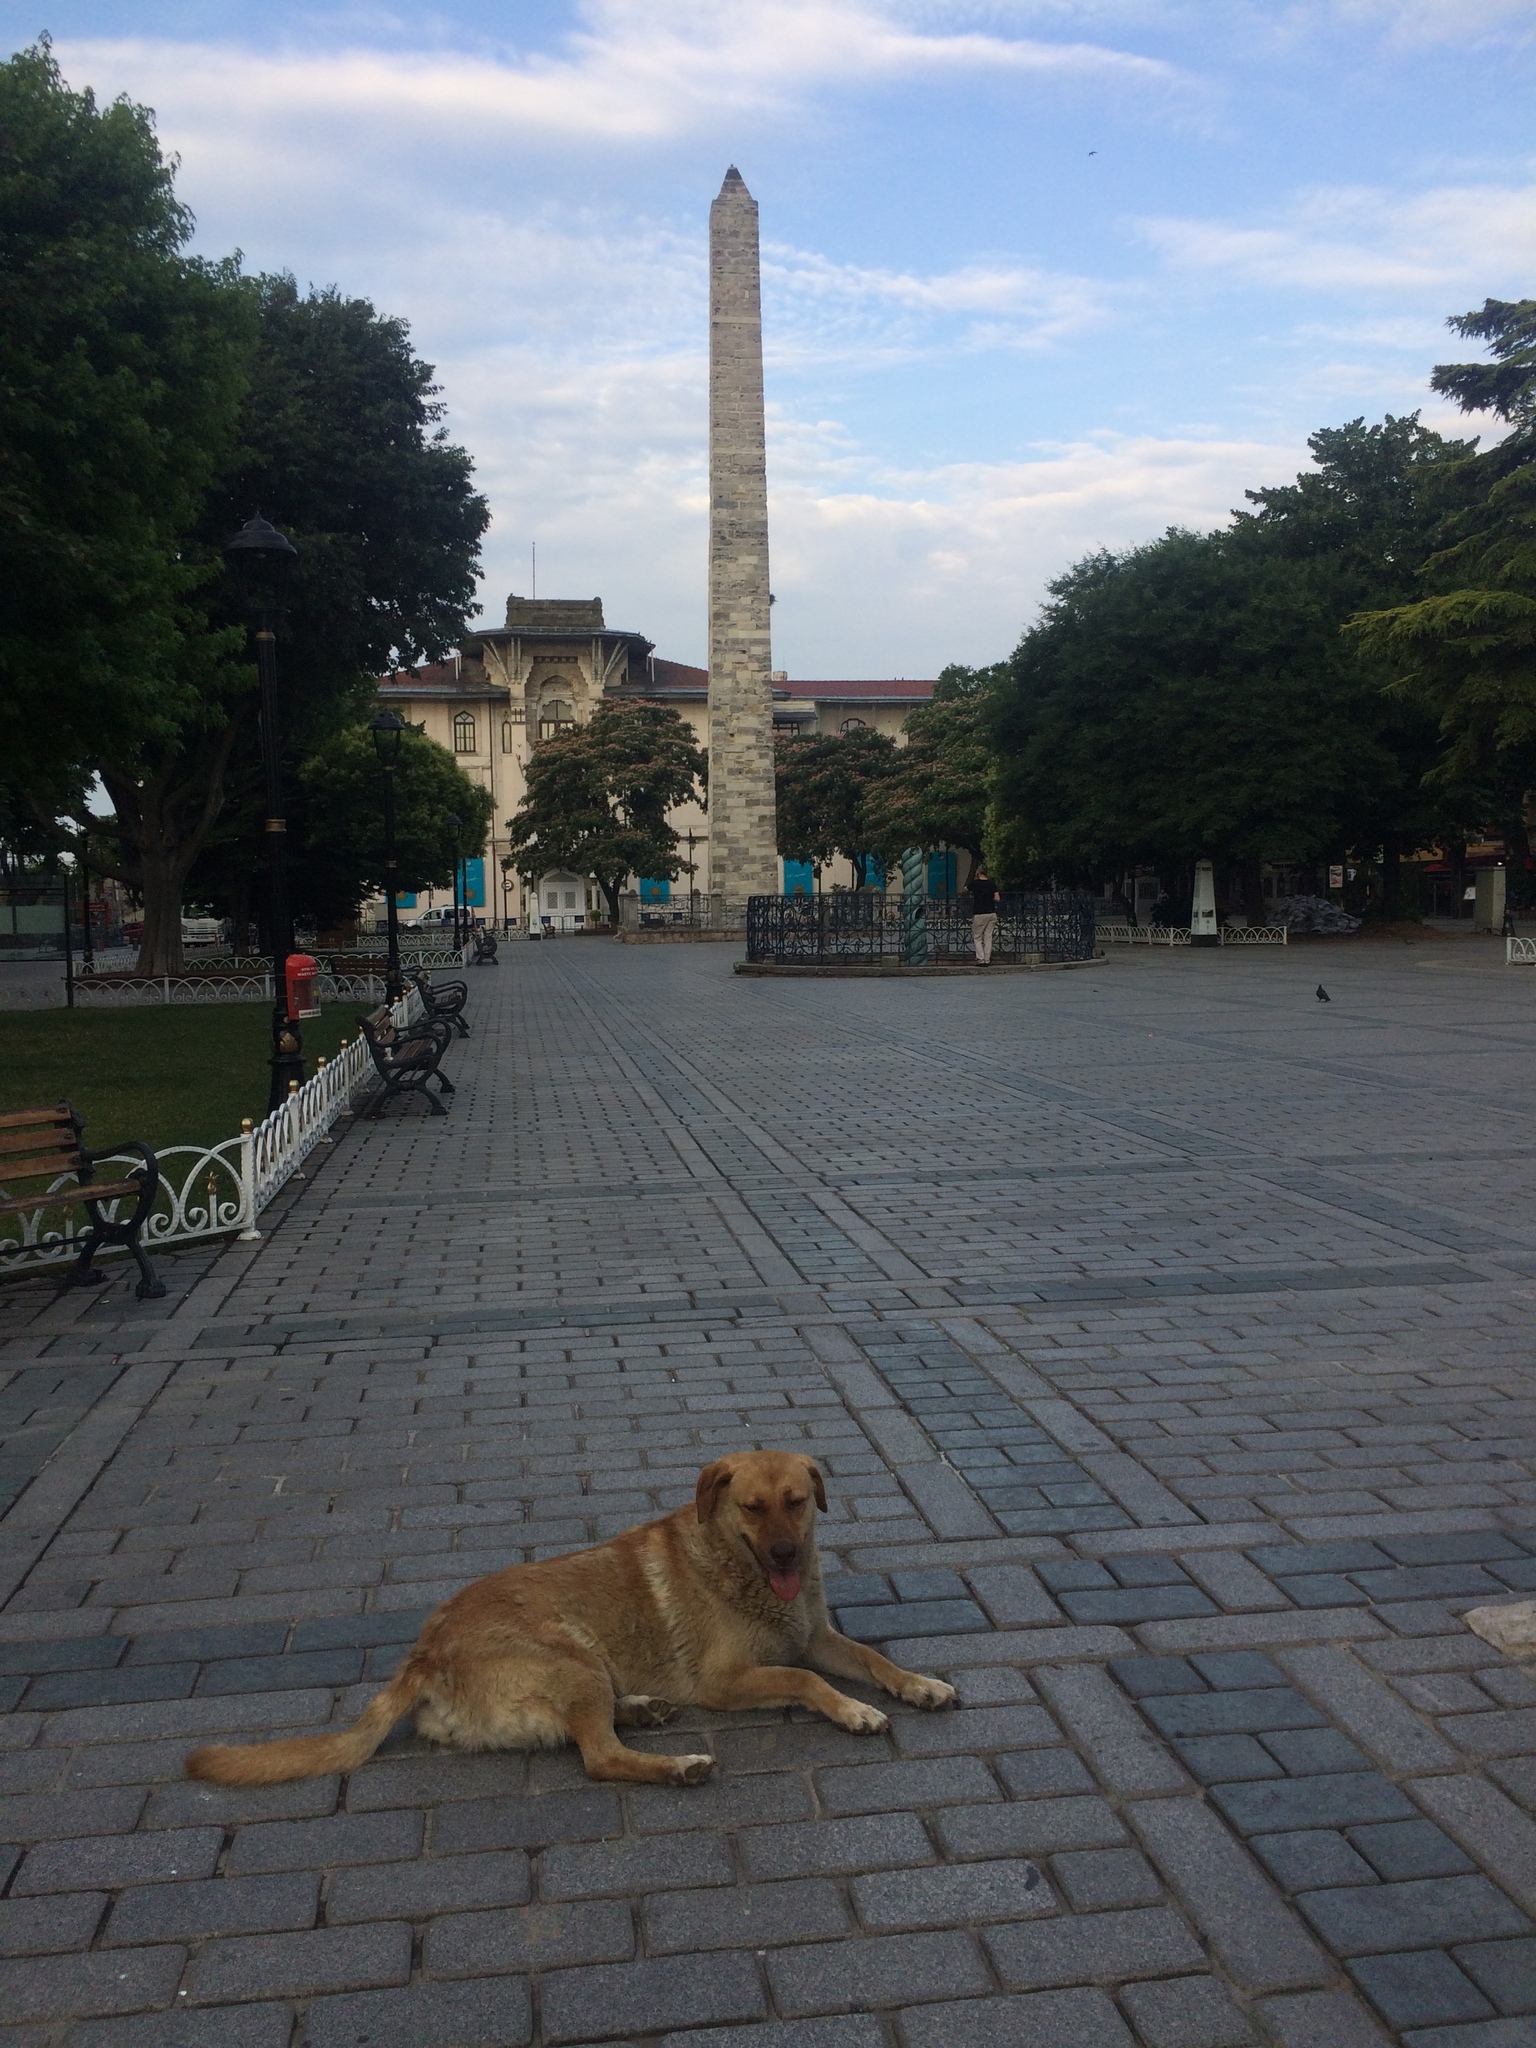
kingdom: Animalia
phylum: Chordata
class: Mammalia
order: Carnivora
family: Canidae
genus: Canis
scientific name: Canis lupus
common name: Gray wolf
